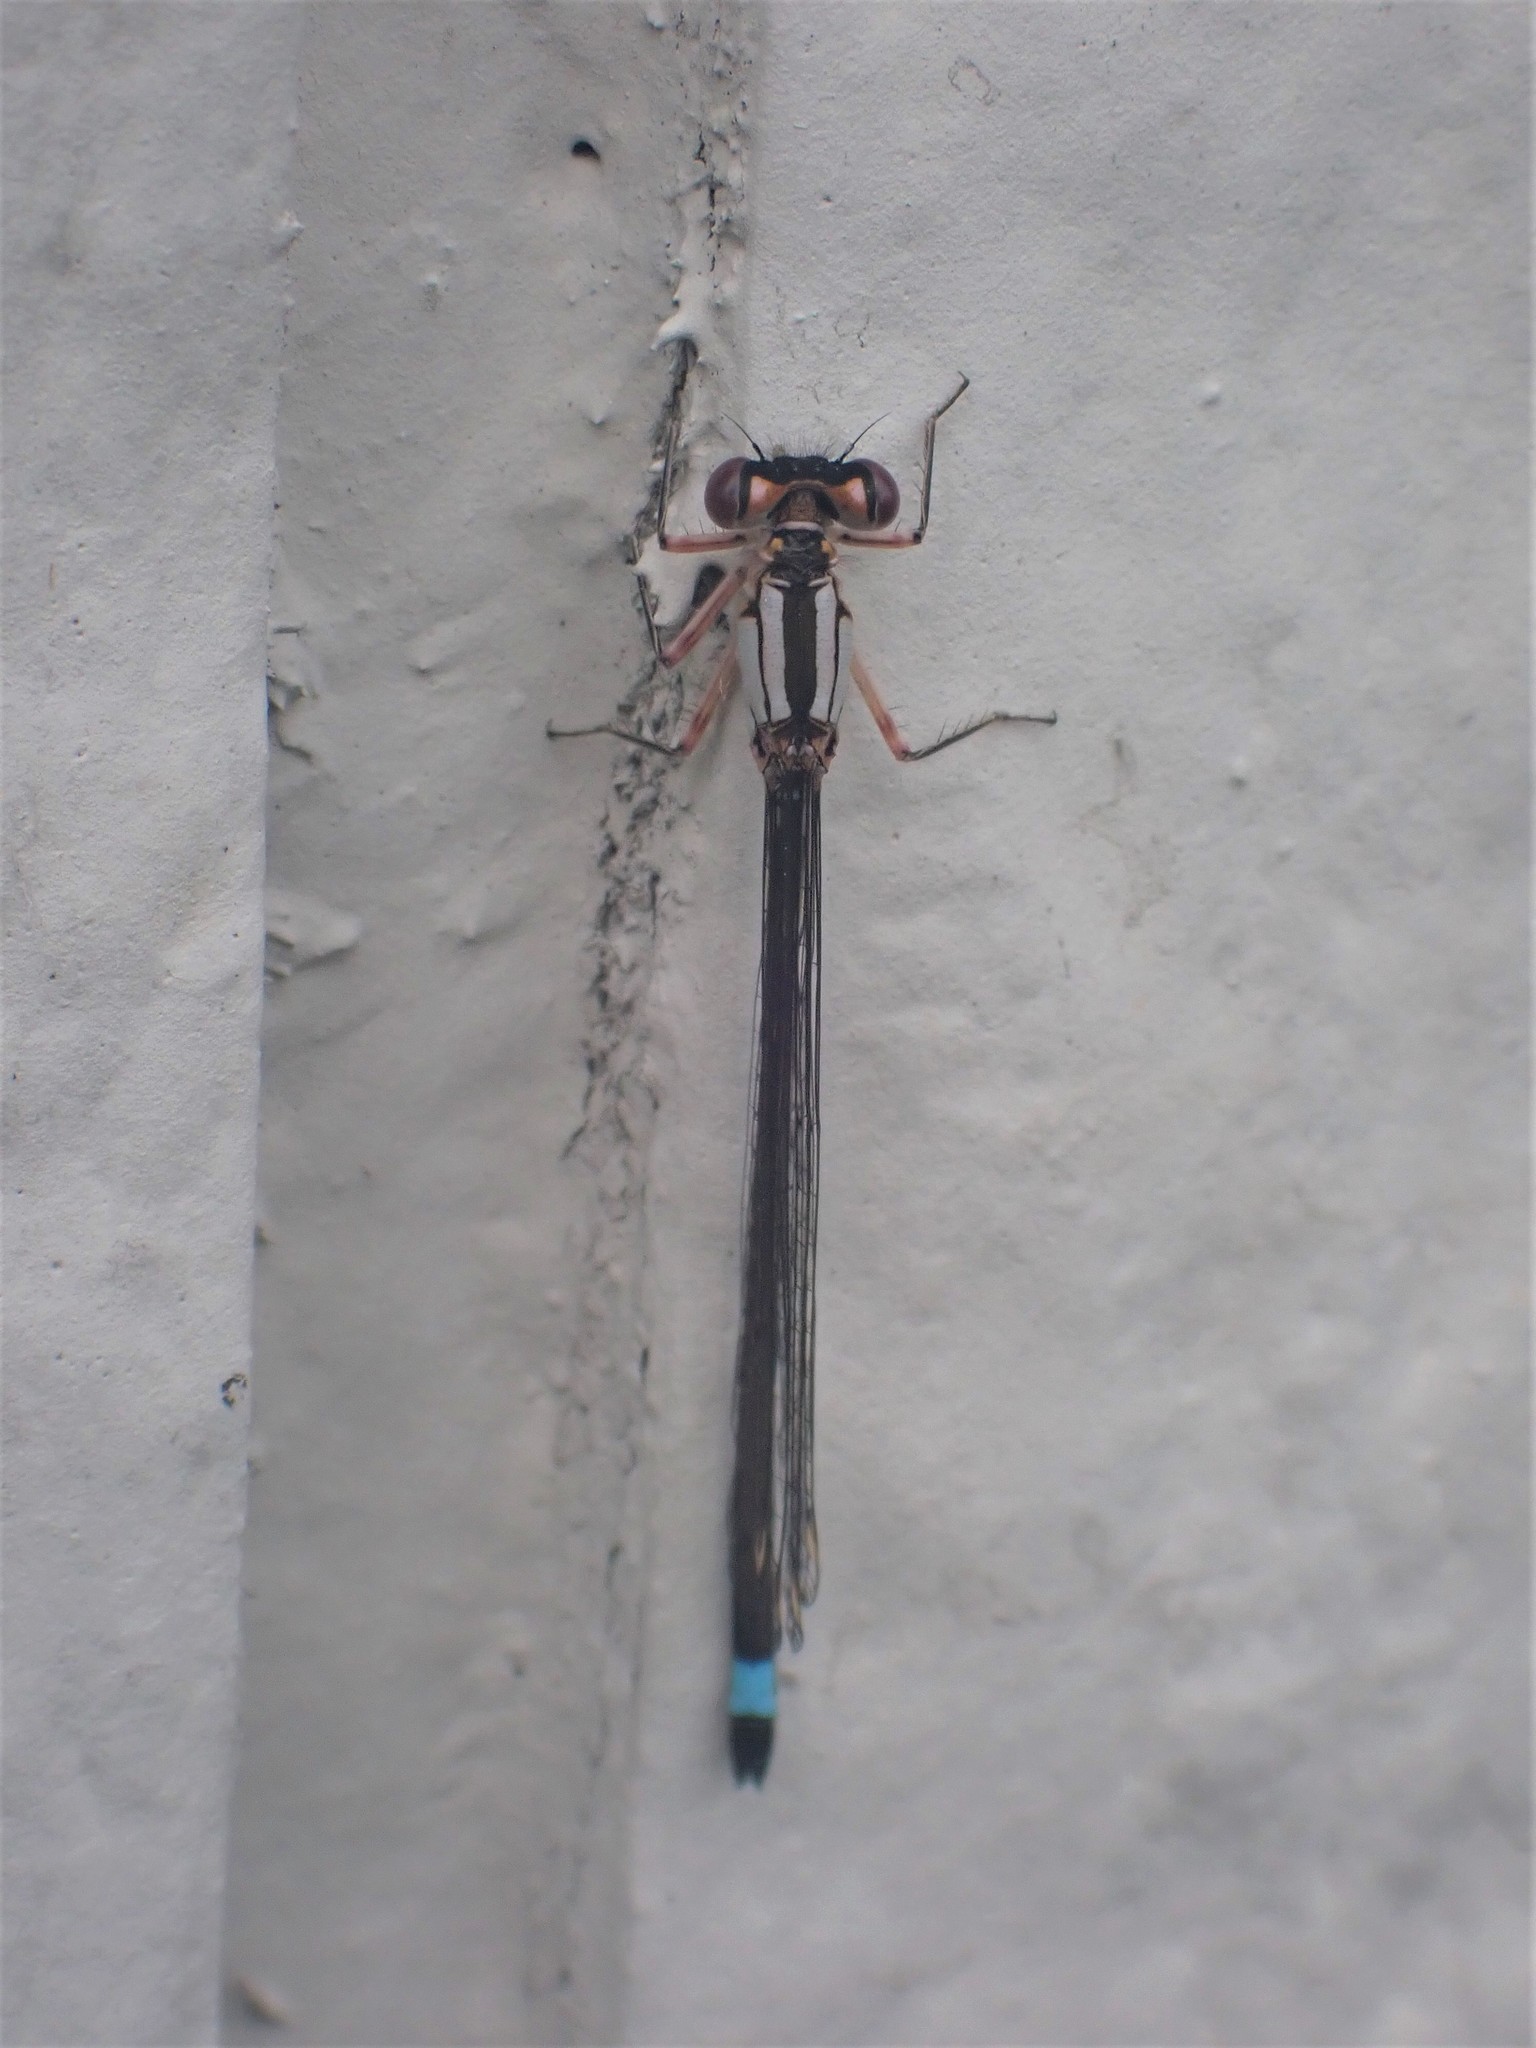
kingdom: Animalia
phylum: Arthropoda
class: Insecta
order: Odonata
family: Coenagrionidae
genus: Ischnura
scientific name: Ischnura cervula
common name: Pacific forktail
